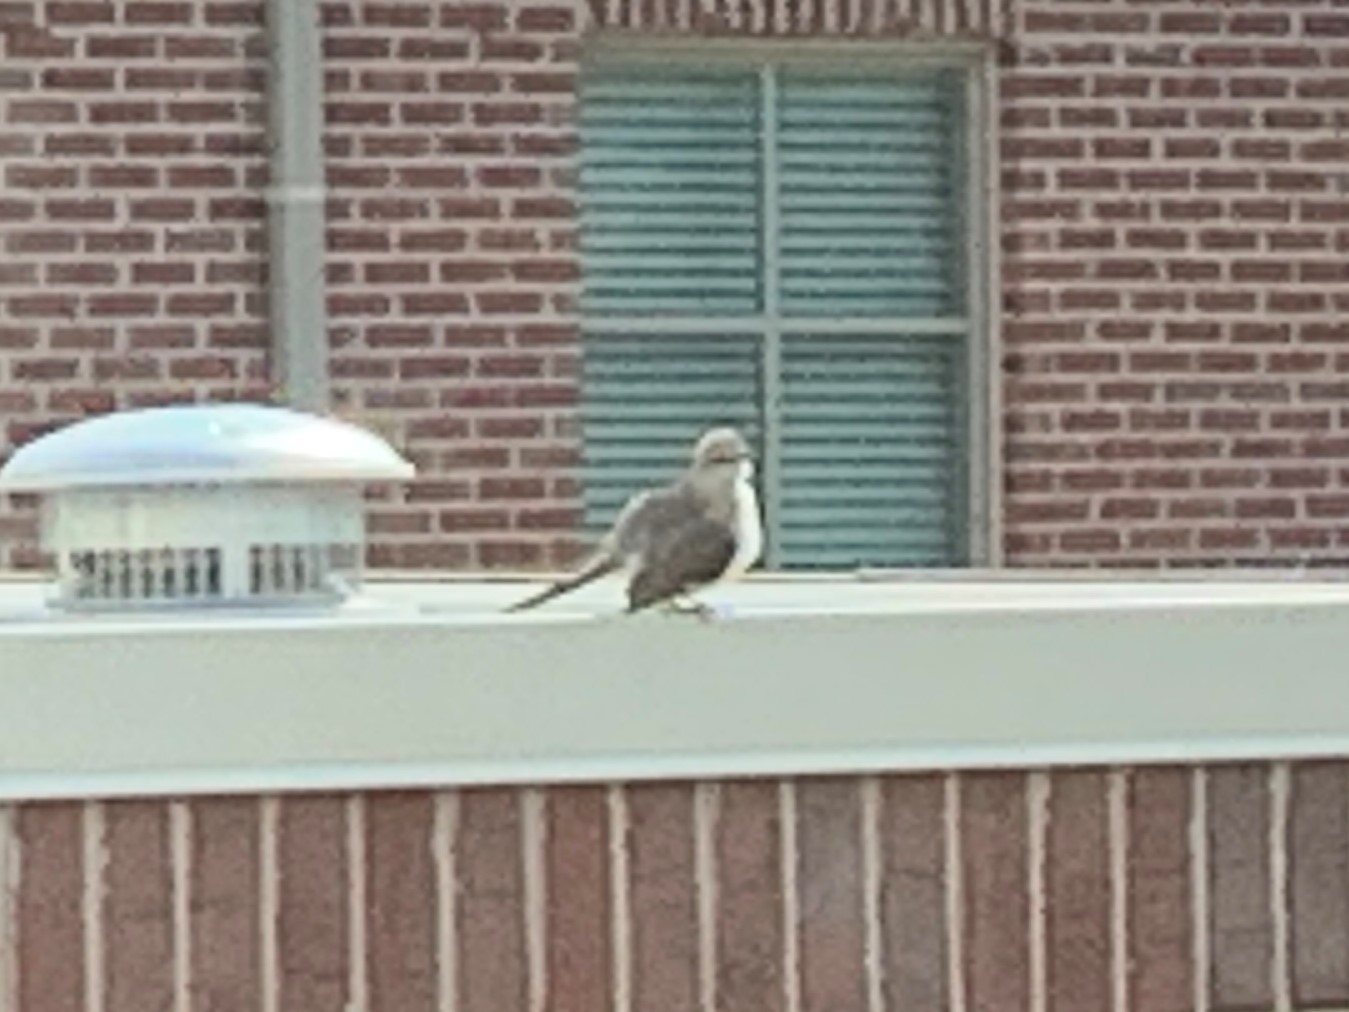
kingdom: Animalia
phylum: Chordata
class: Aves
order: Passeriformes
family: Mimidae
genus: Mimus
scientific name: Mimus polyglottos
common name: Northern mockingbird
